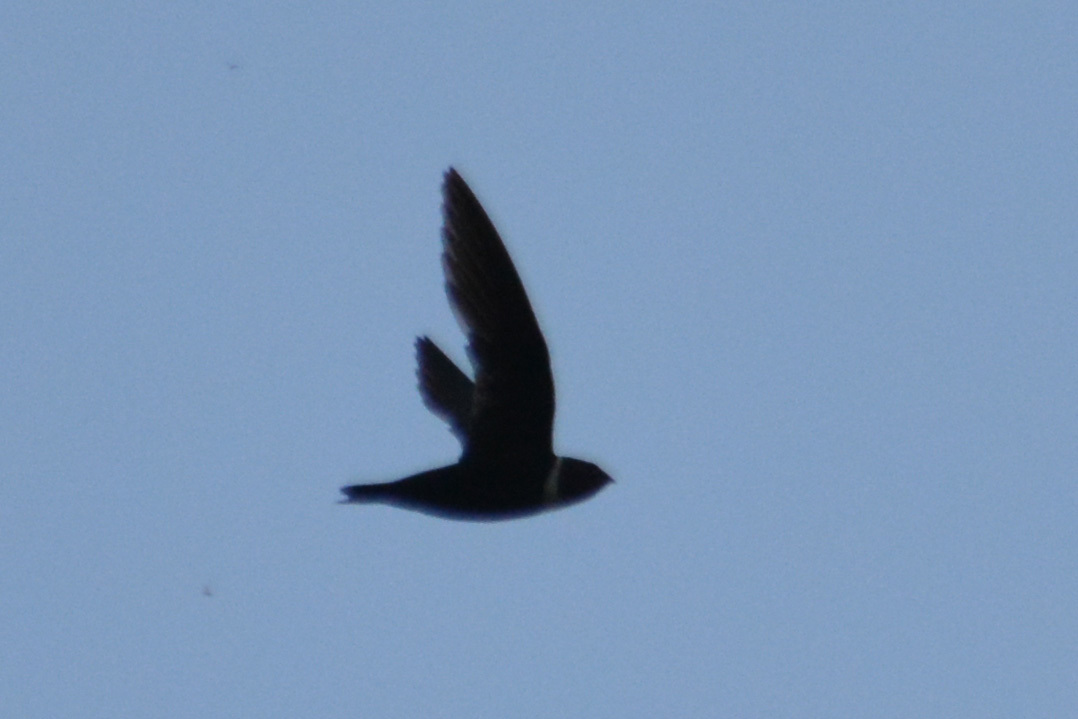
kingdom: Animalia
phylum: Chordata
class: Aves
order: Apodiformes
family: Apodidae
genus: Streptoprocne
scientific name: Streptoprocne zonaris
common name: White-collared swift
